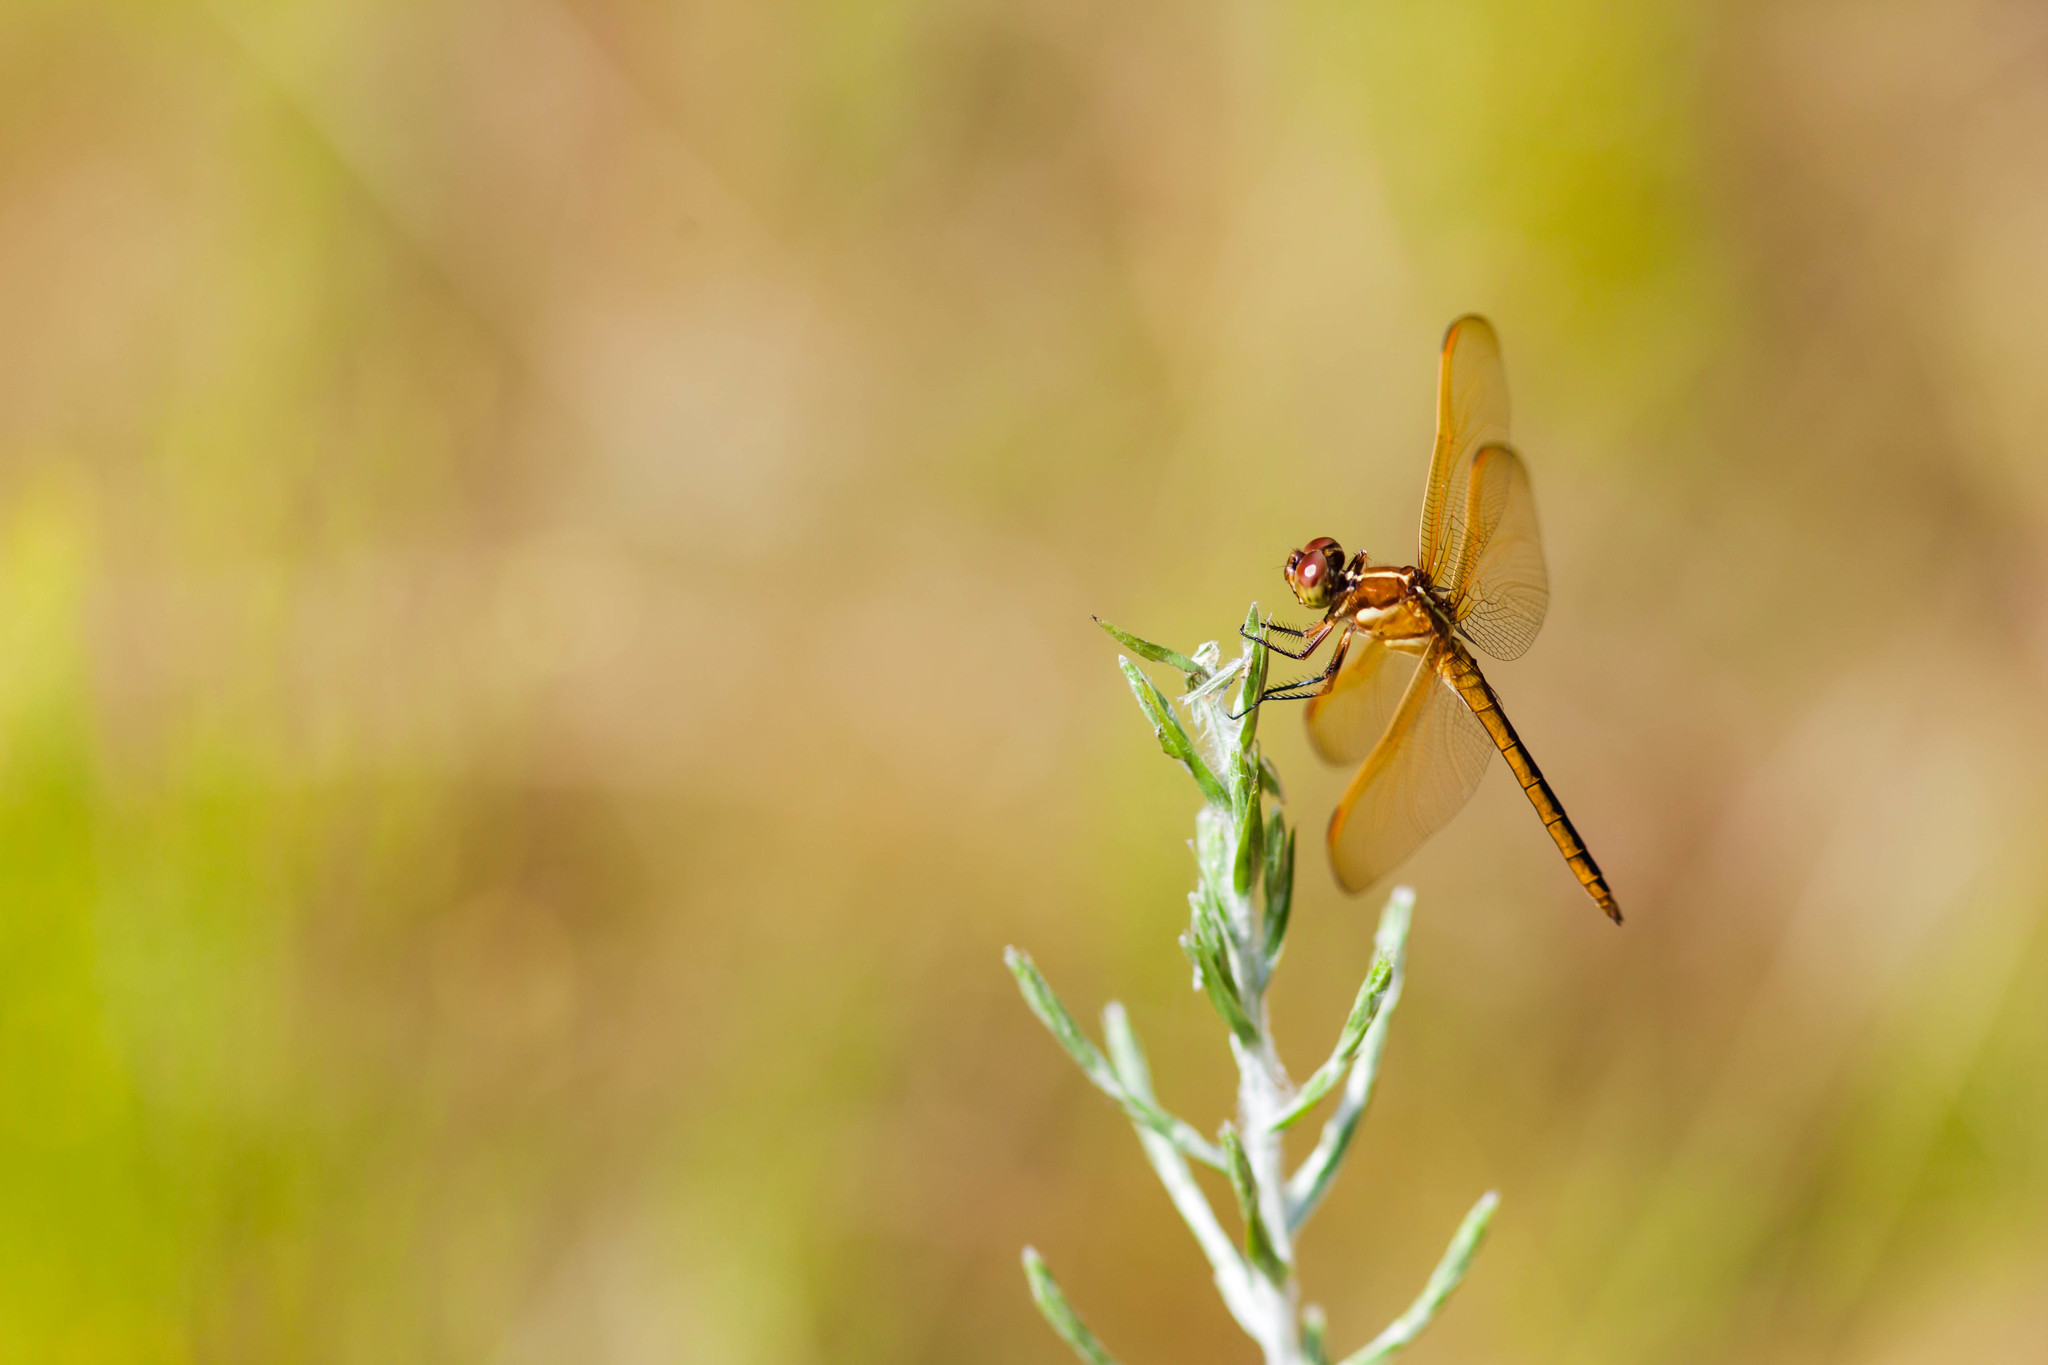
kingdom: Animalia
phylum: Arthropoda
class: Insecta
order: Odonata
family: Libellulidae
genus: Libellula
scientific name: Libellula auripennis
